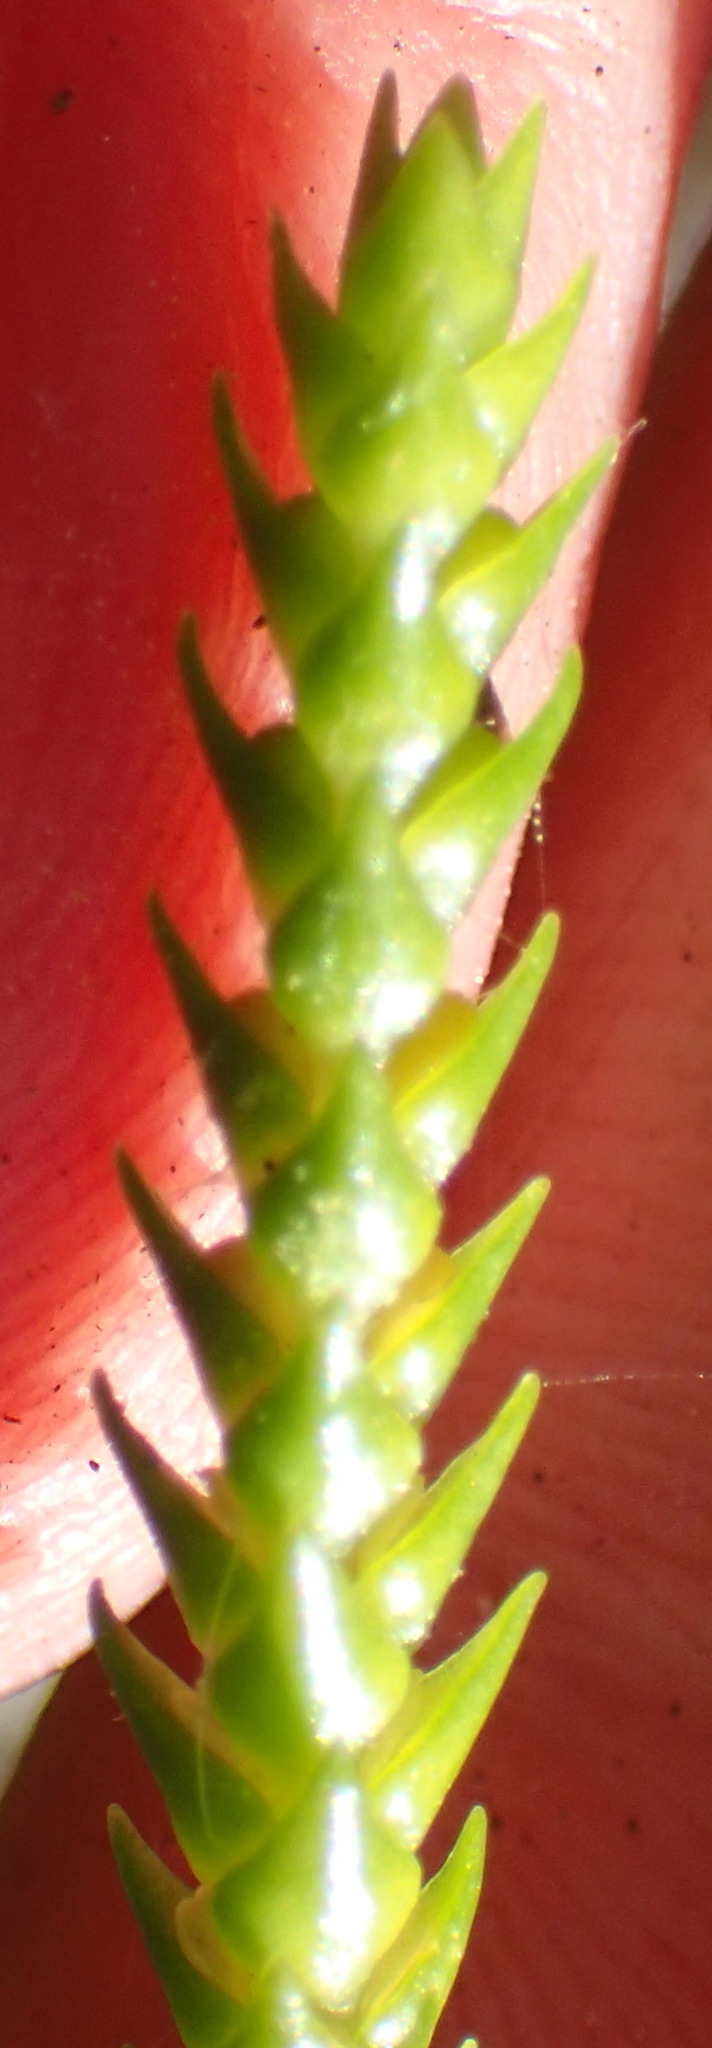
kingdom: Plantae
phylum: Tracheophyta
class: Lycopodiopsida
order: Lycopodiales
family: Lycopodiaceae
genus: Phlegmariurus
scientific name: Phlegmariurus gnidioides
